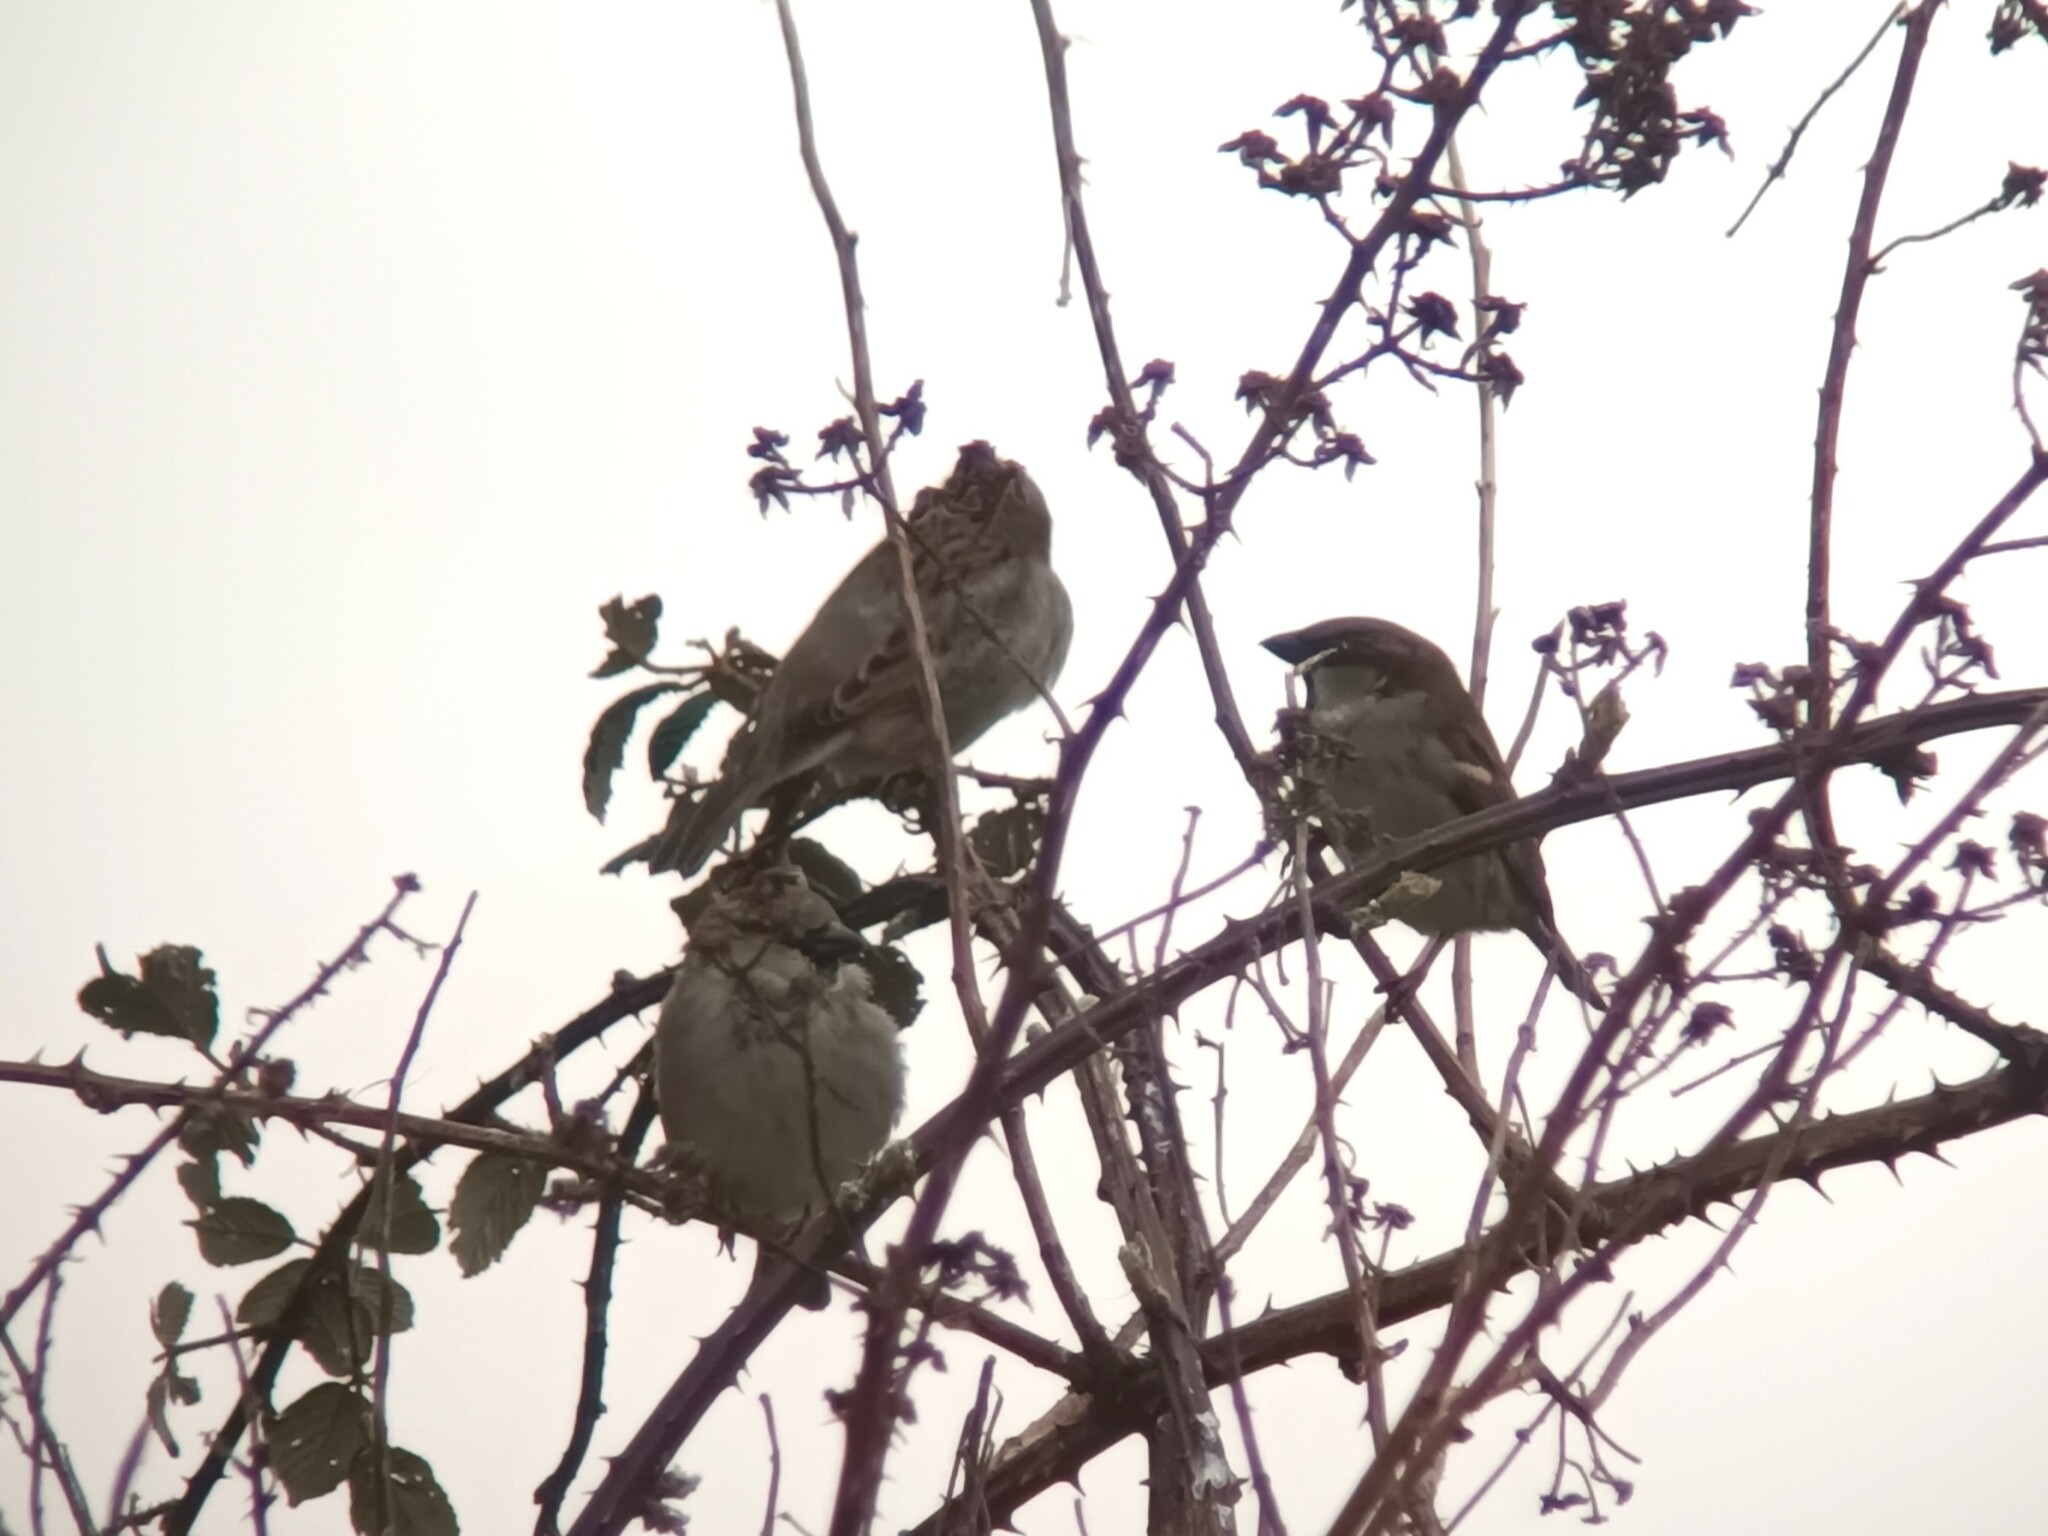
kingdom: Animalia
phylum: Chordata
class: Aves
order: Passeriformes
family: Passeridae
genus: Passer
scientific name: Passer domesticus
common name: House sparrow
